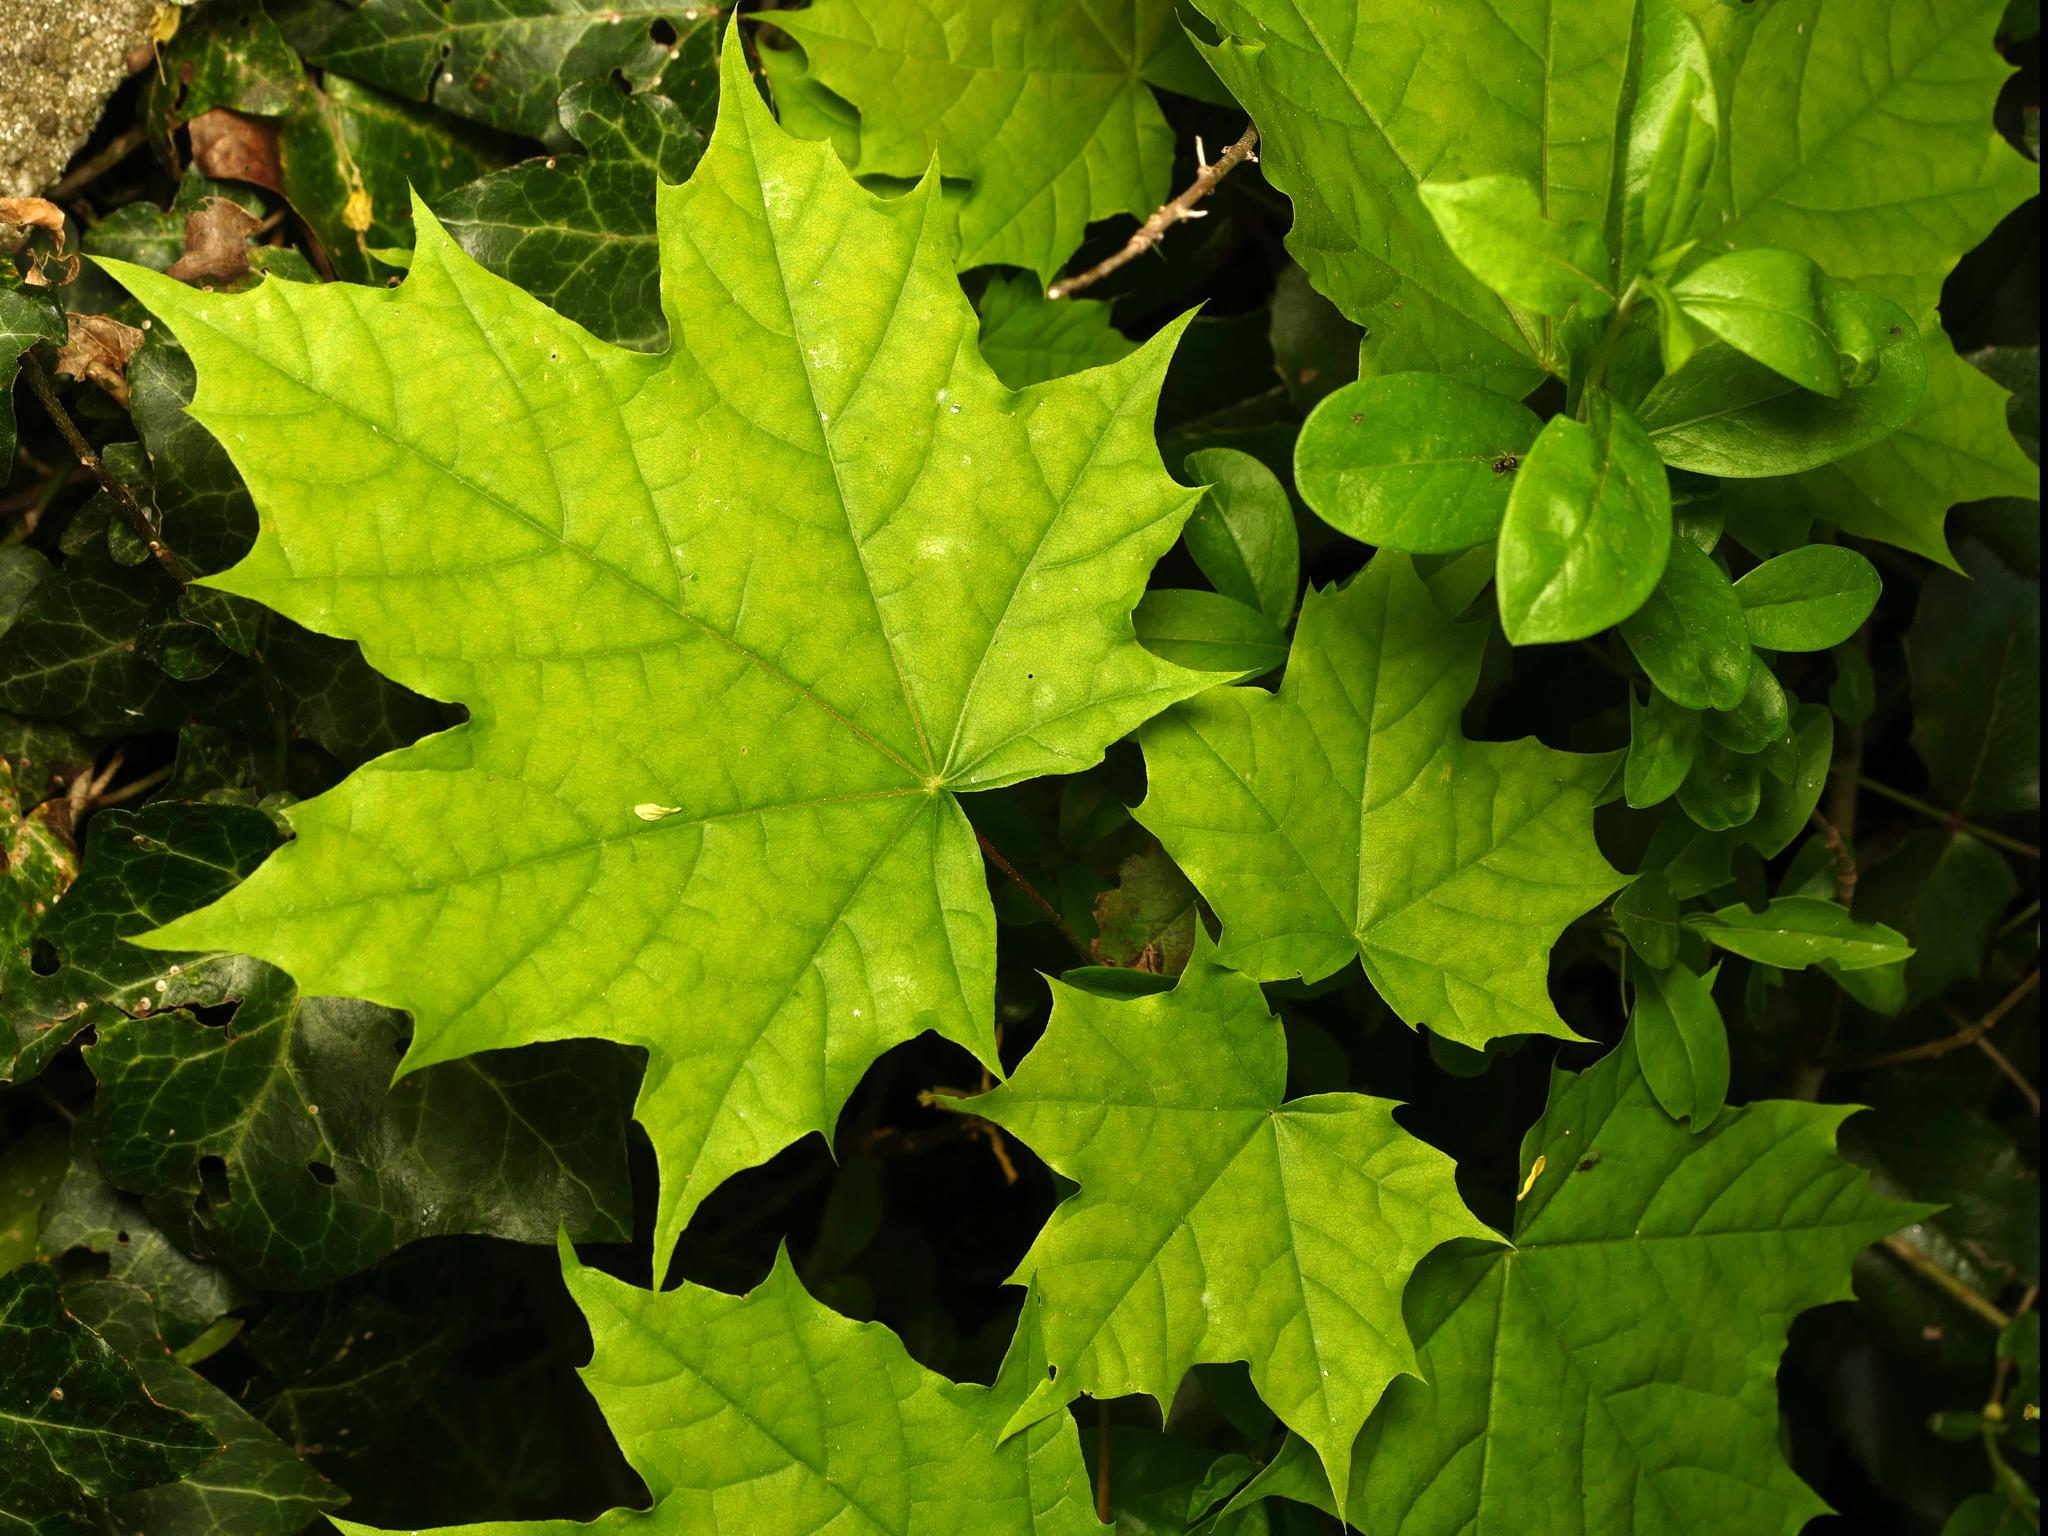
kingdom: Plantae
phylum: Tracheophyta
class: Magnoliopsida
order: Sapindales
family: Sapindaceae
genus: Acer
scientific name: Acer platanoides
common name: Norway maple
